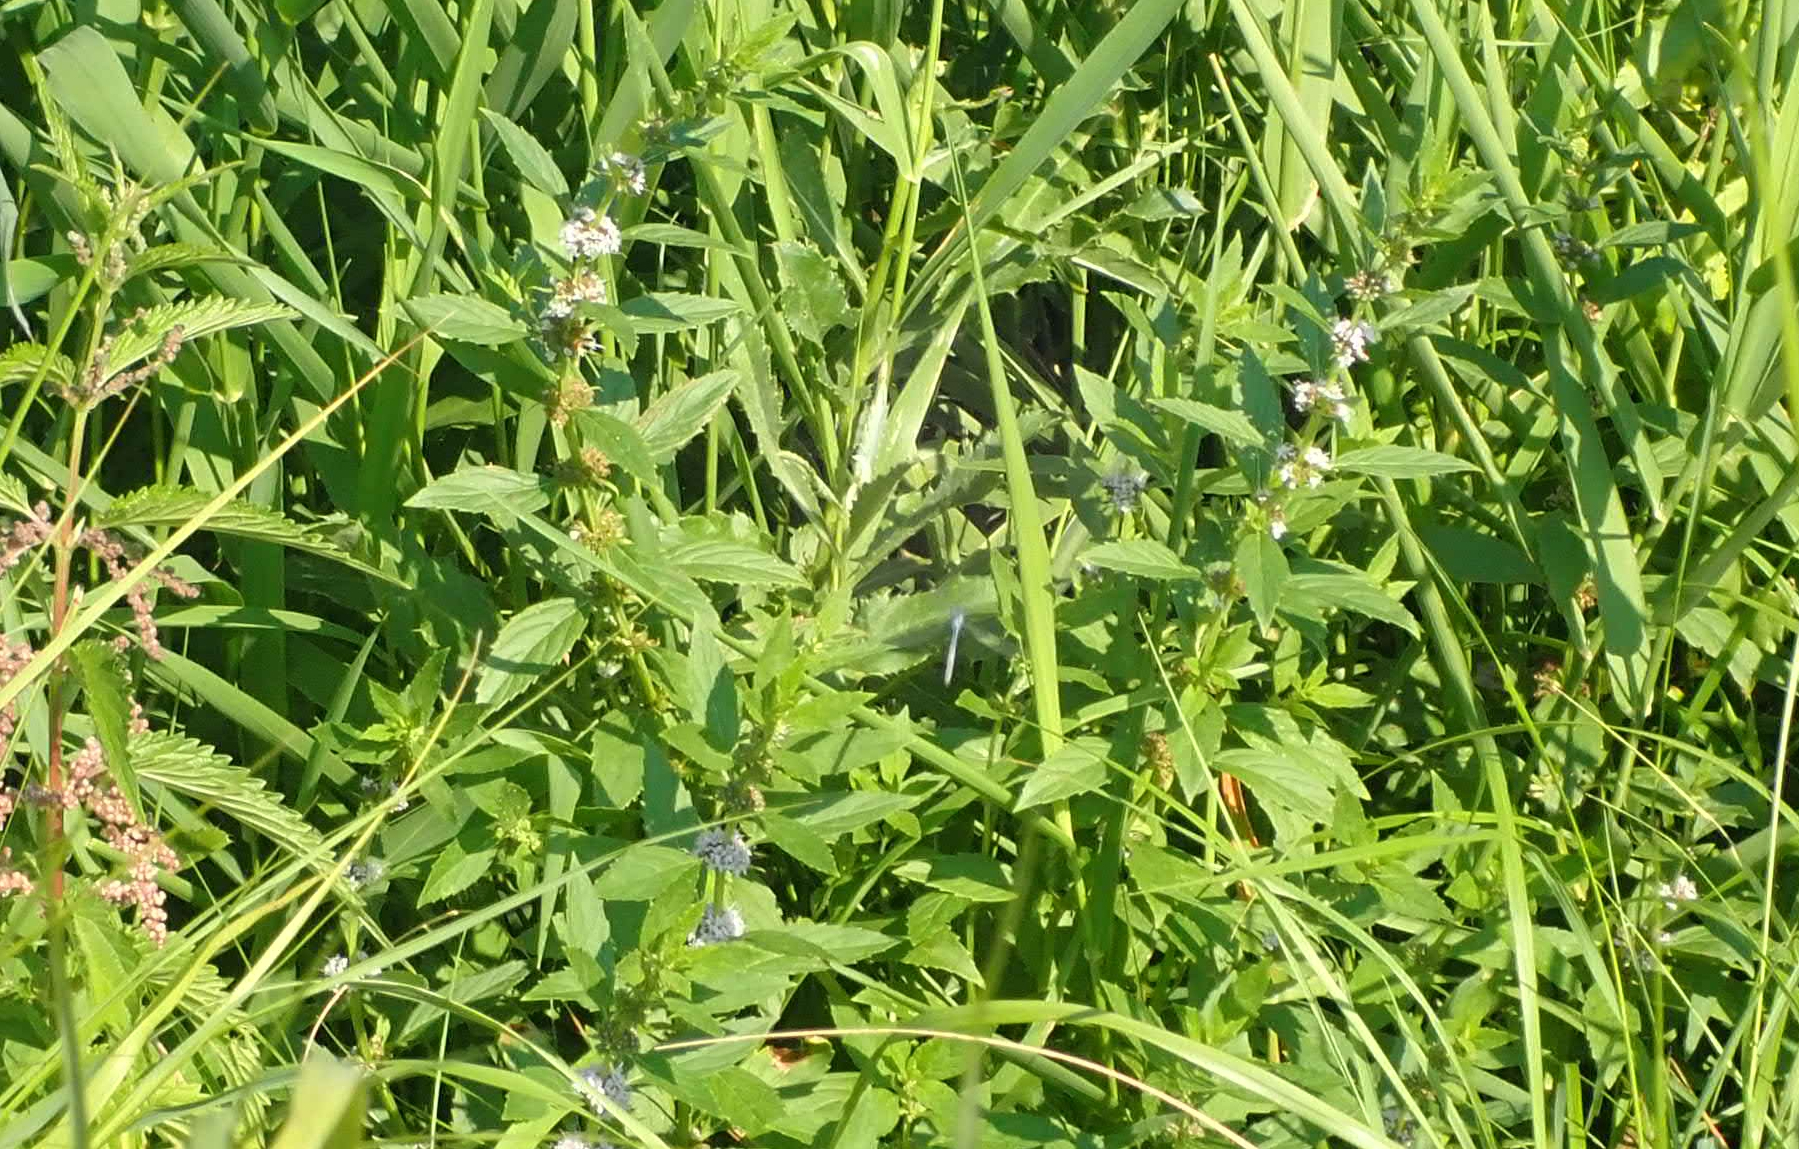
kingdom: Plantae
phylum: Tracheophyta
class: Magnoliopsida
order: Lamiales
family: Lamiaceae
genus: Mentha
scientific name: Mentha canadensis
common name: American corn mint
